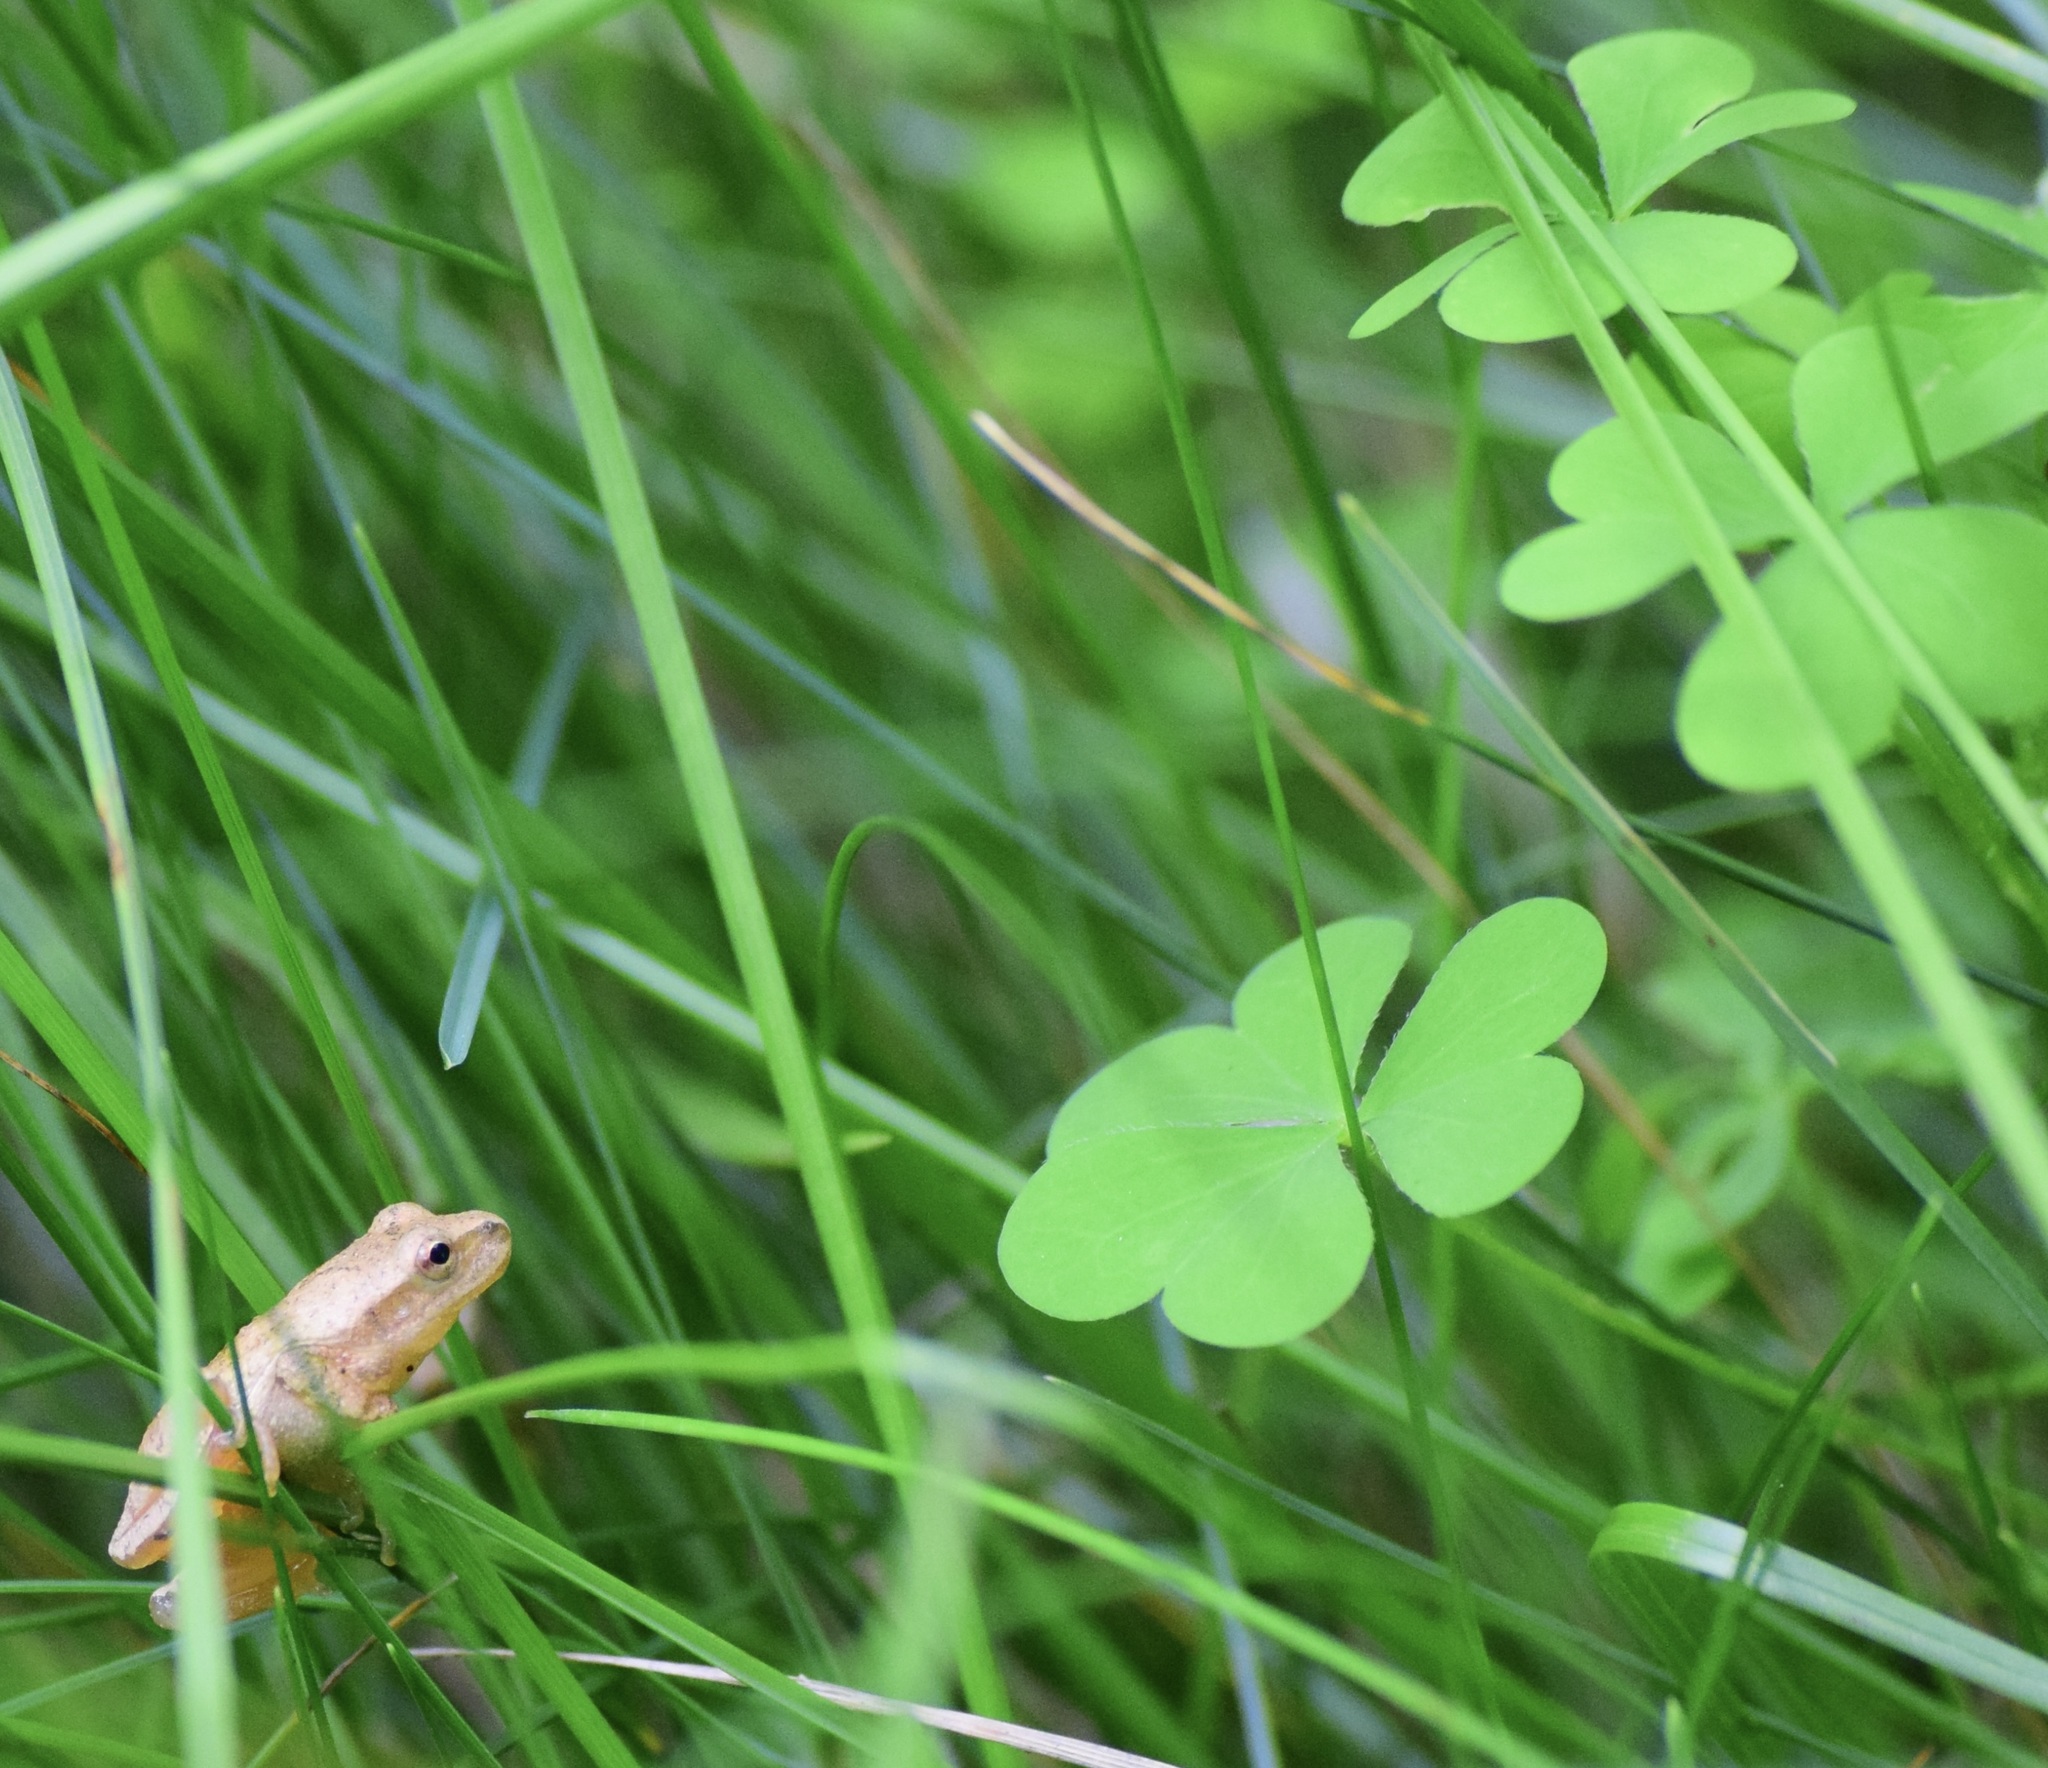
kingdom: Animalia
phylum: Chordata
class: Amphibia
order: Anura
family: Hylidae
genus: Pseudacris
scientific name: Pseudacris crucifer
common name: Spring peeper
